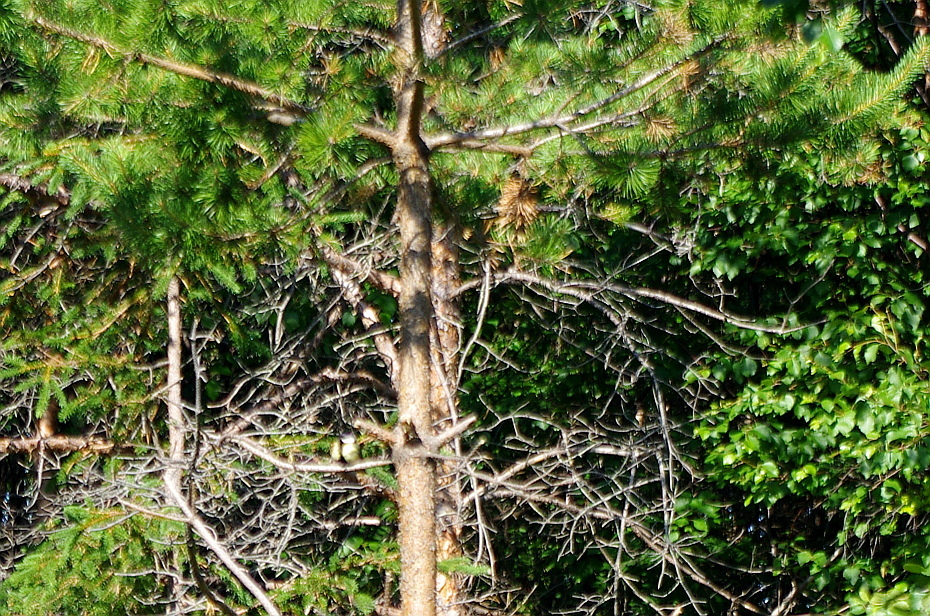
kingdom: Plantae
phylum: Tracheophyta
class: Pinopsida
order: Pinales
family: Pinaceae
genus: Pinus
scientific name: Pinus sylvestris
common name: Scots pine
